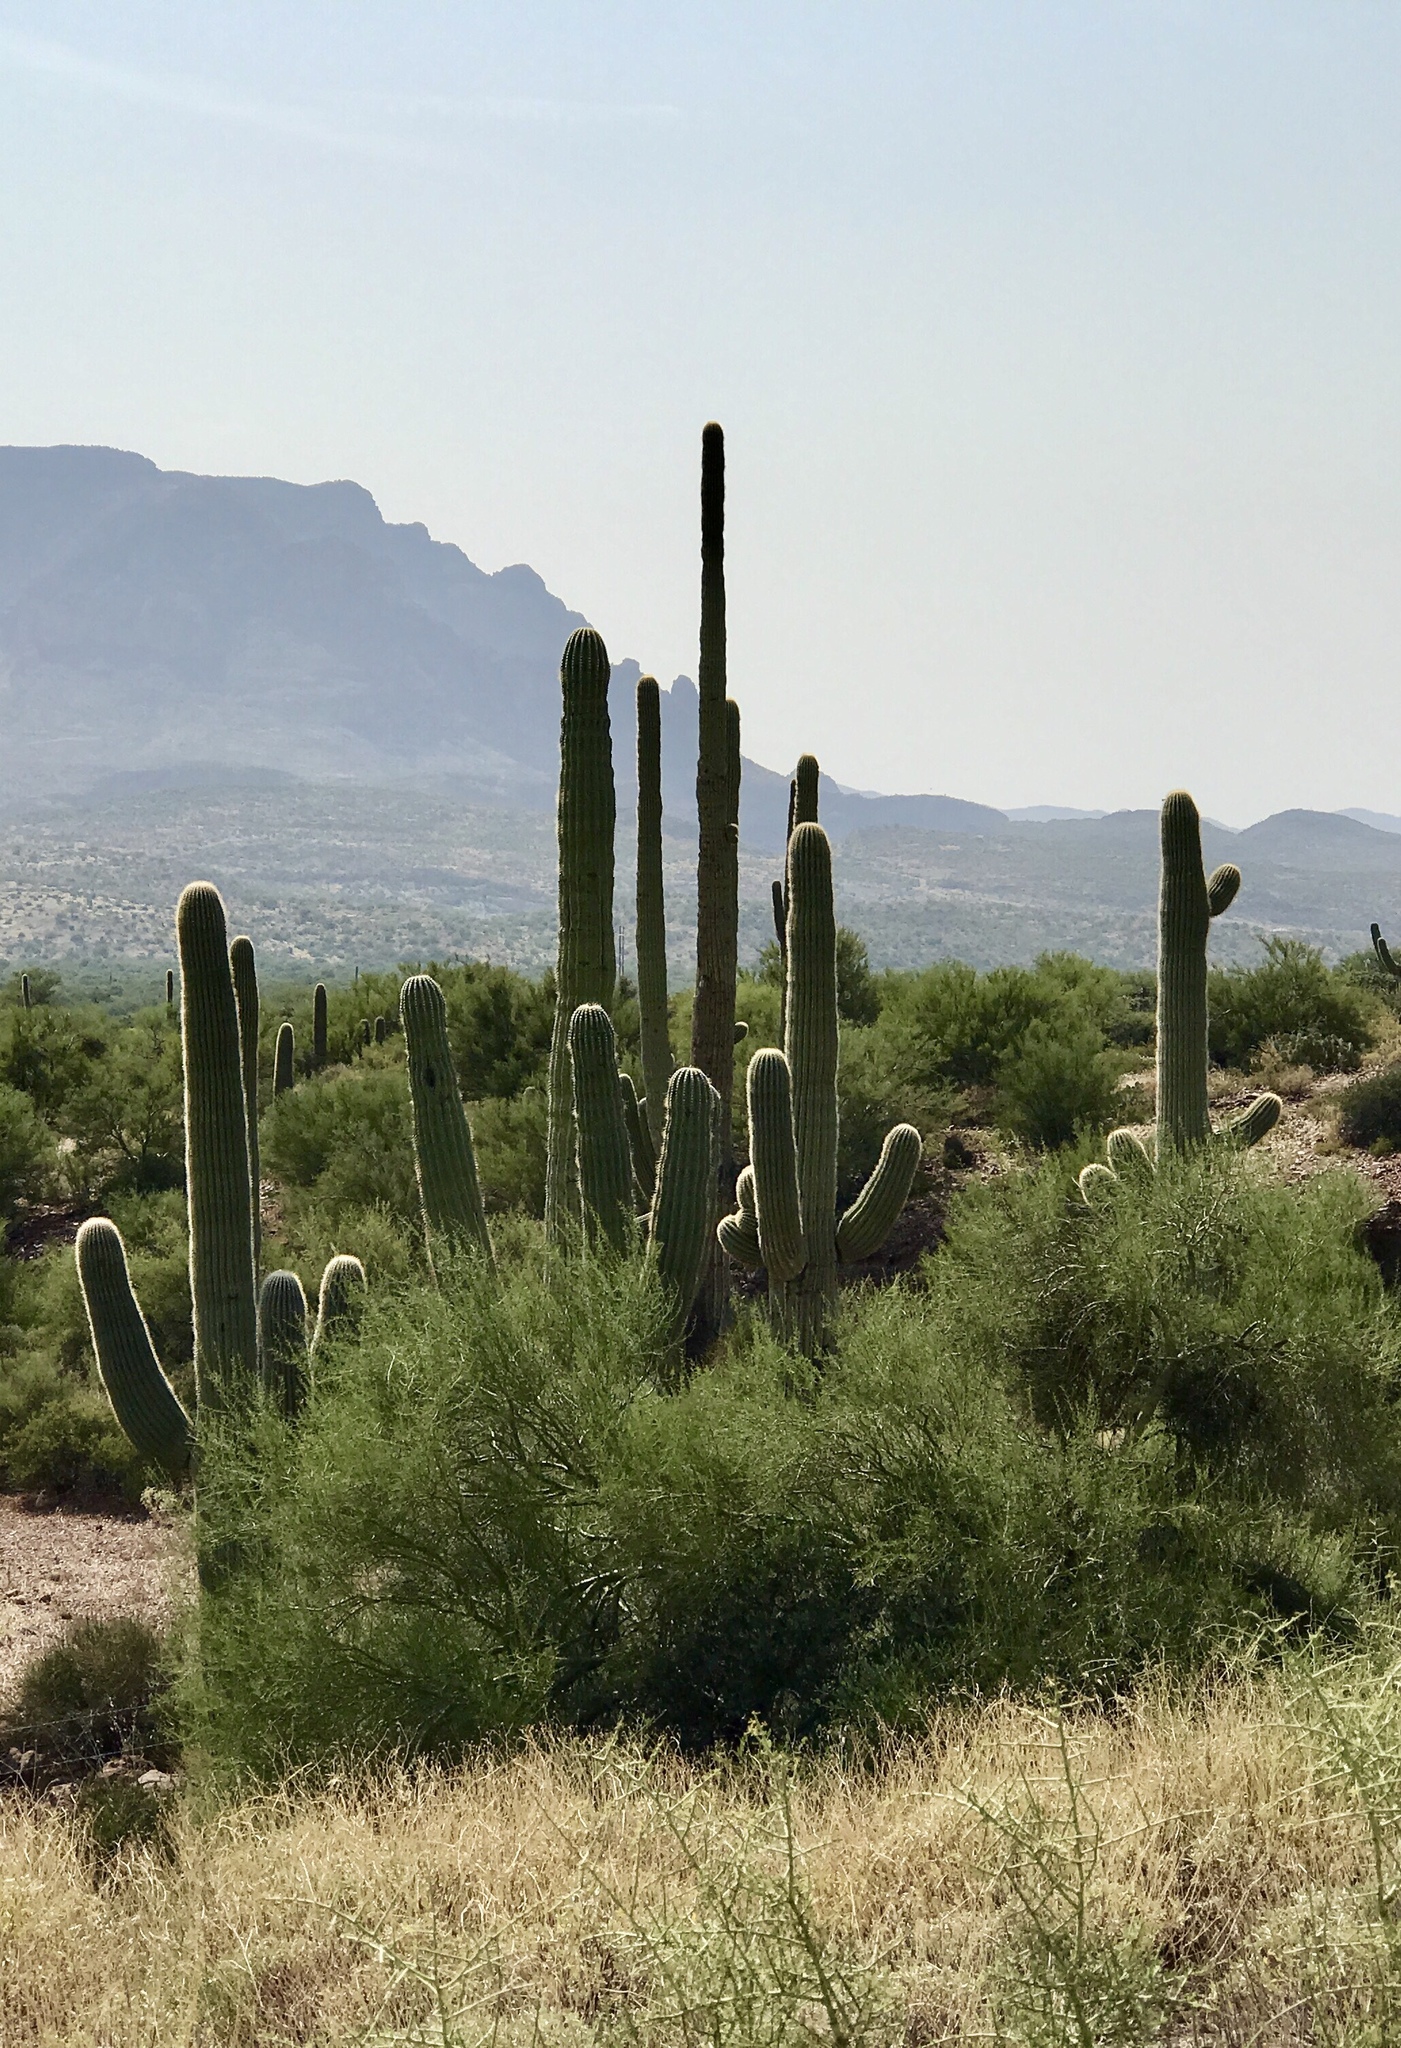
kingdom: Plantae
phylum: Tracheophyta
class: Magnoliopsida
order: Caryophyllales
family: Cactaceae
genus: Carnegiea
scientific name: Carnegiea gigantea
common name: Saguaro
